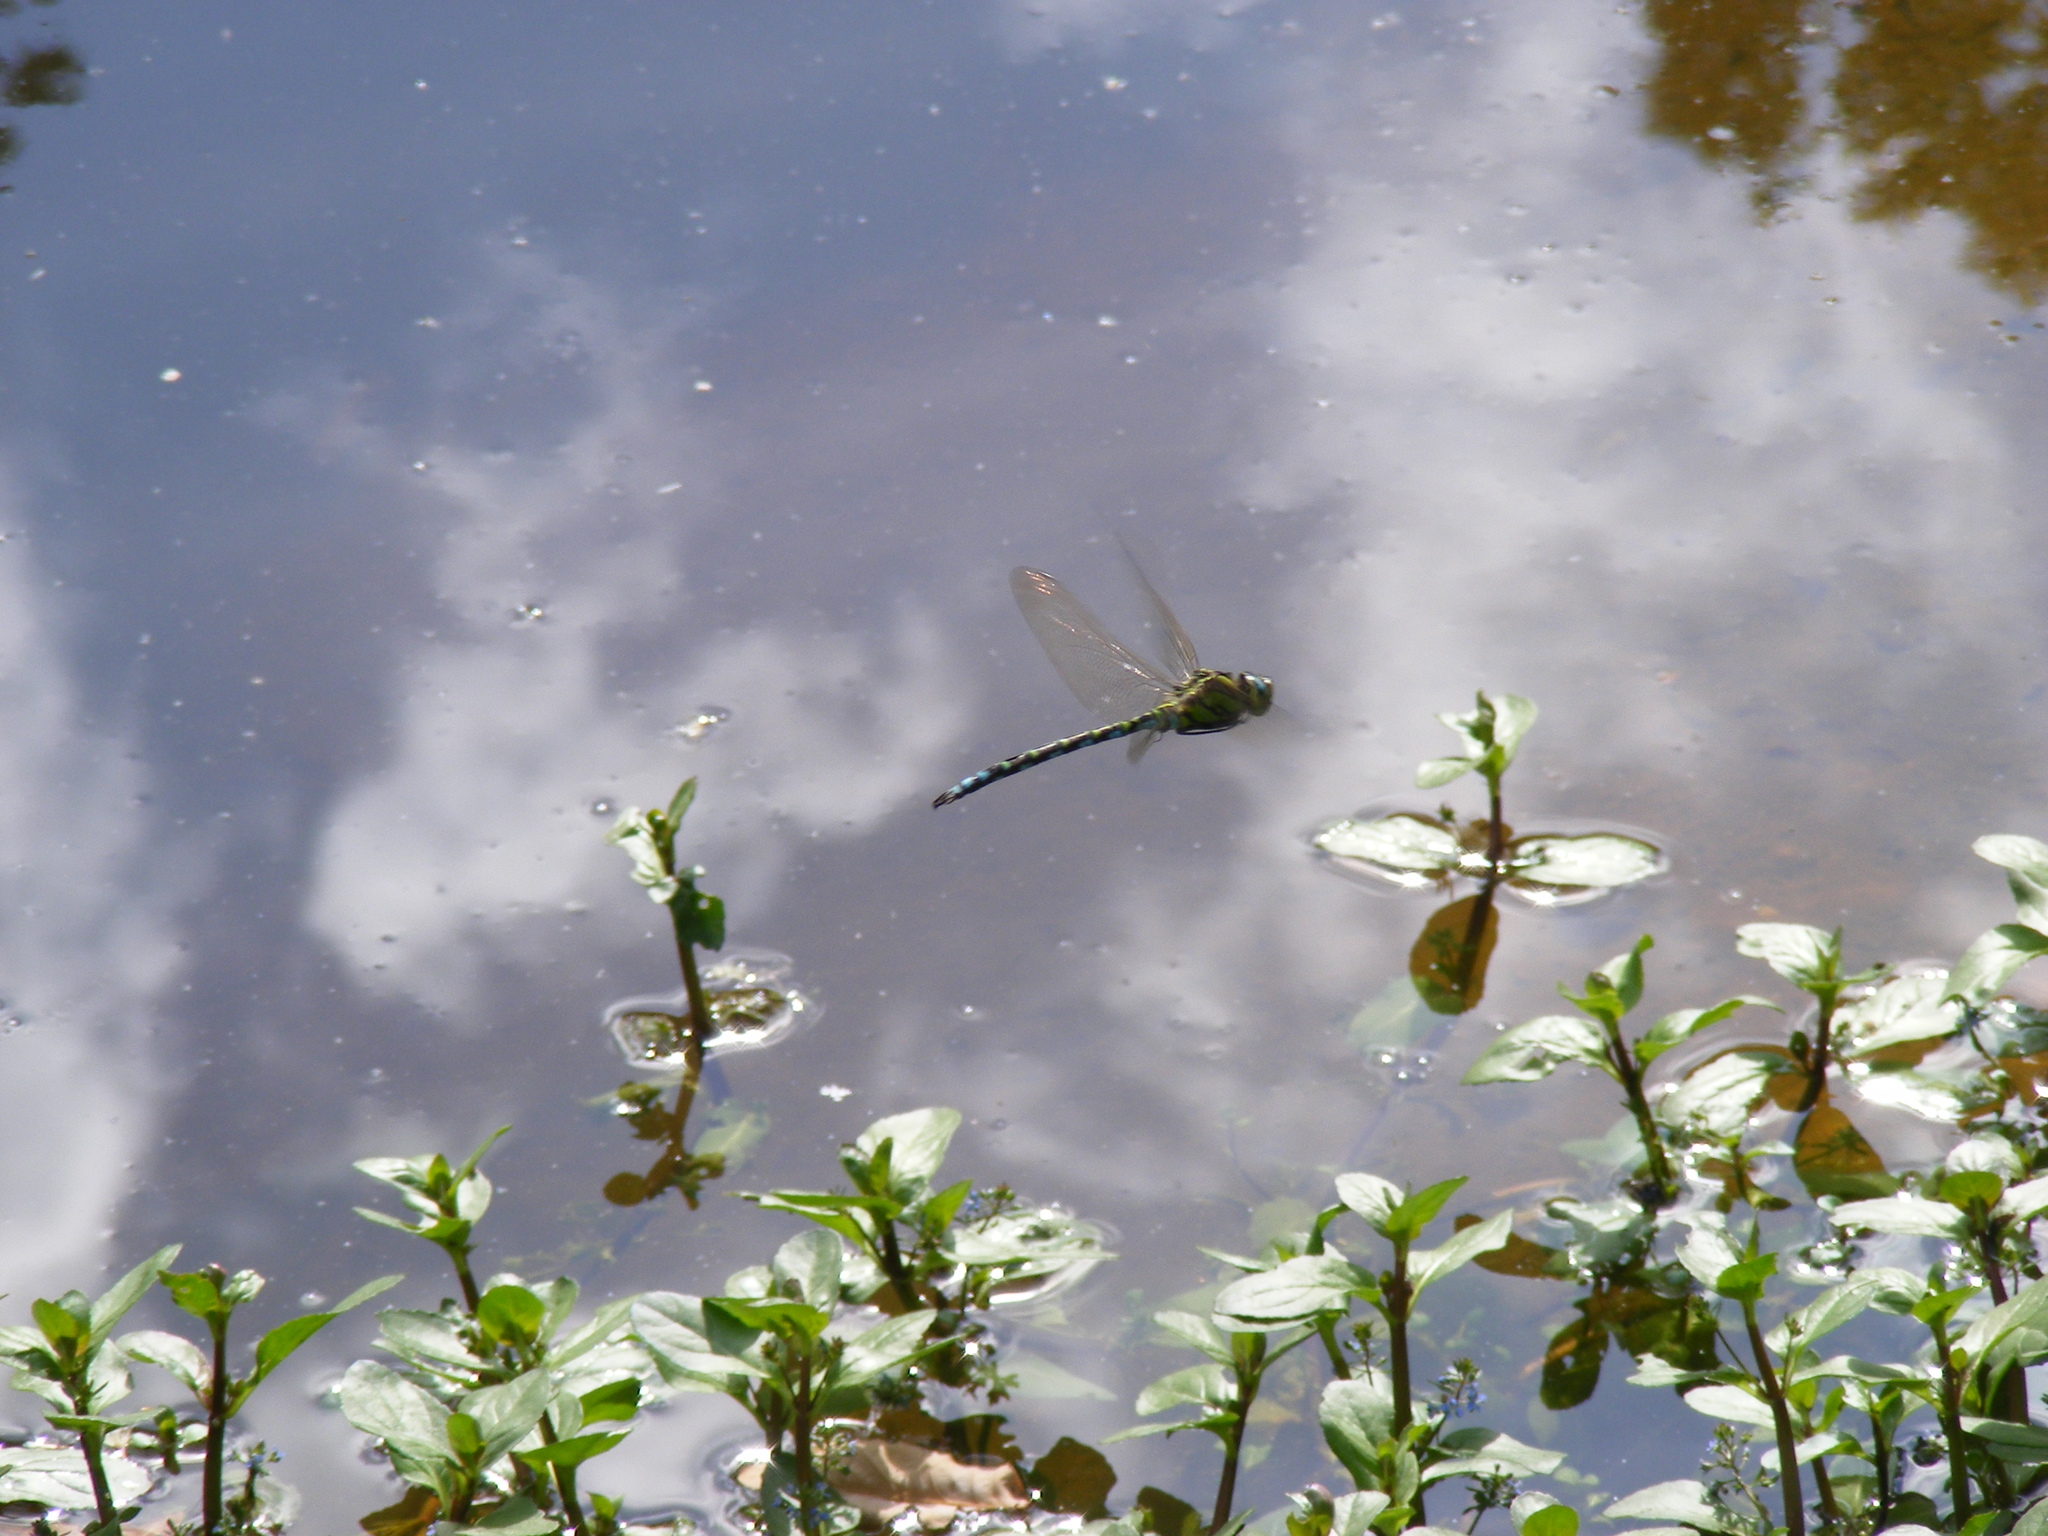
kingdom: Animalia
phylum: Arthropoda
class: Insecta
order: Odonata
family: Aeshnidae
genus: Aeshna
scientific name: Aeshna cyanea
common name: Southern hawker
